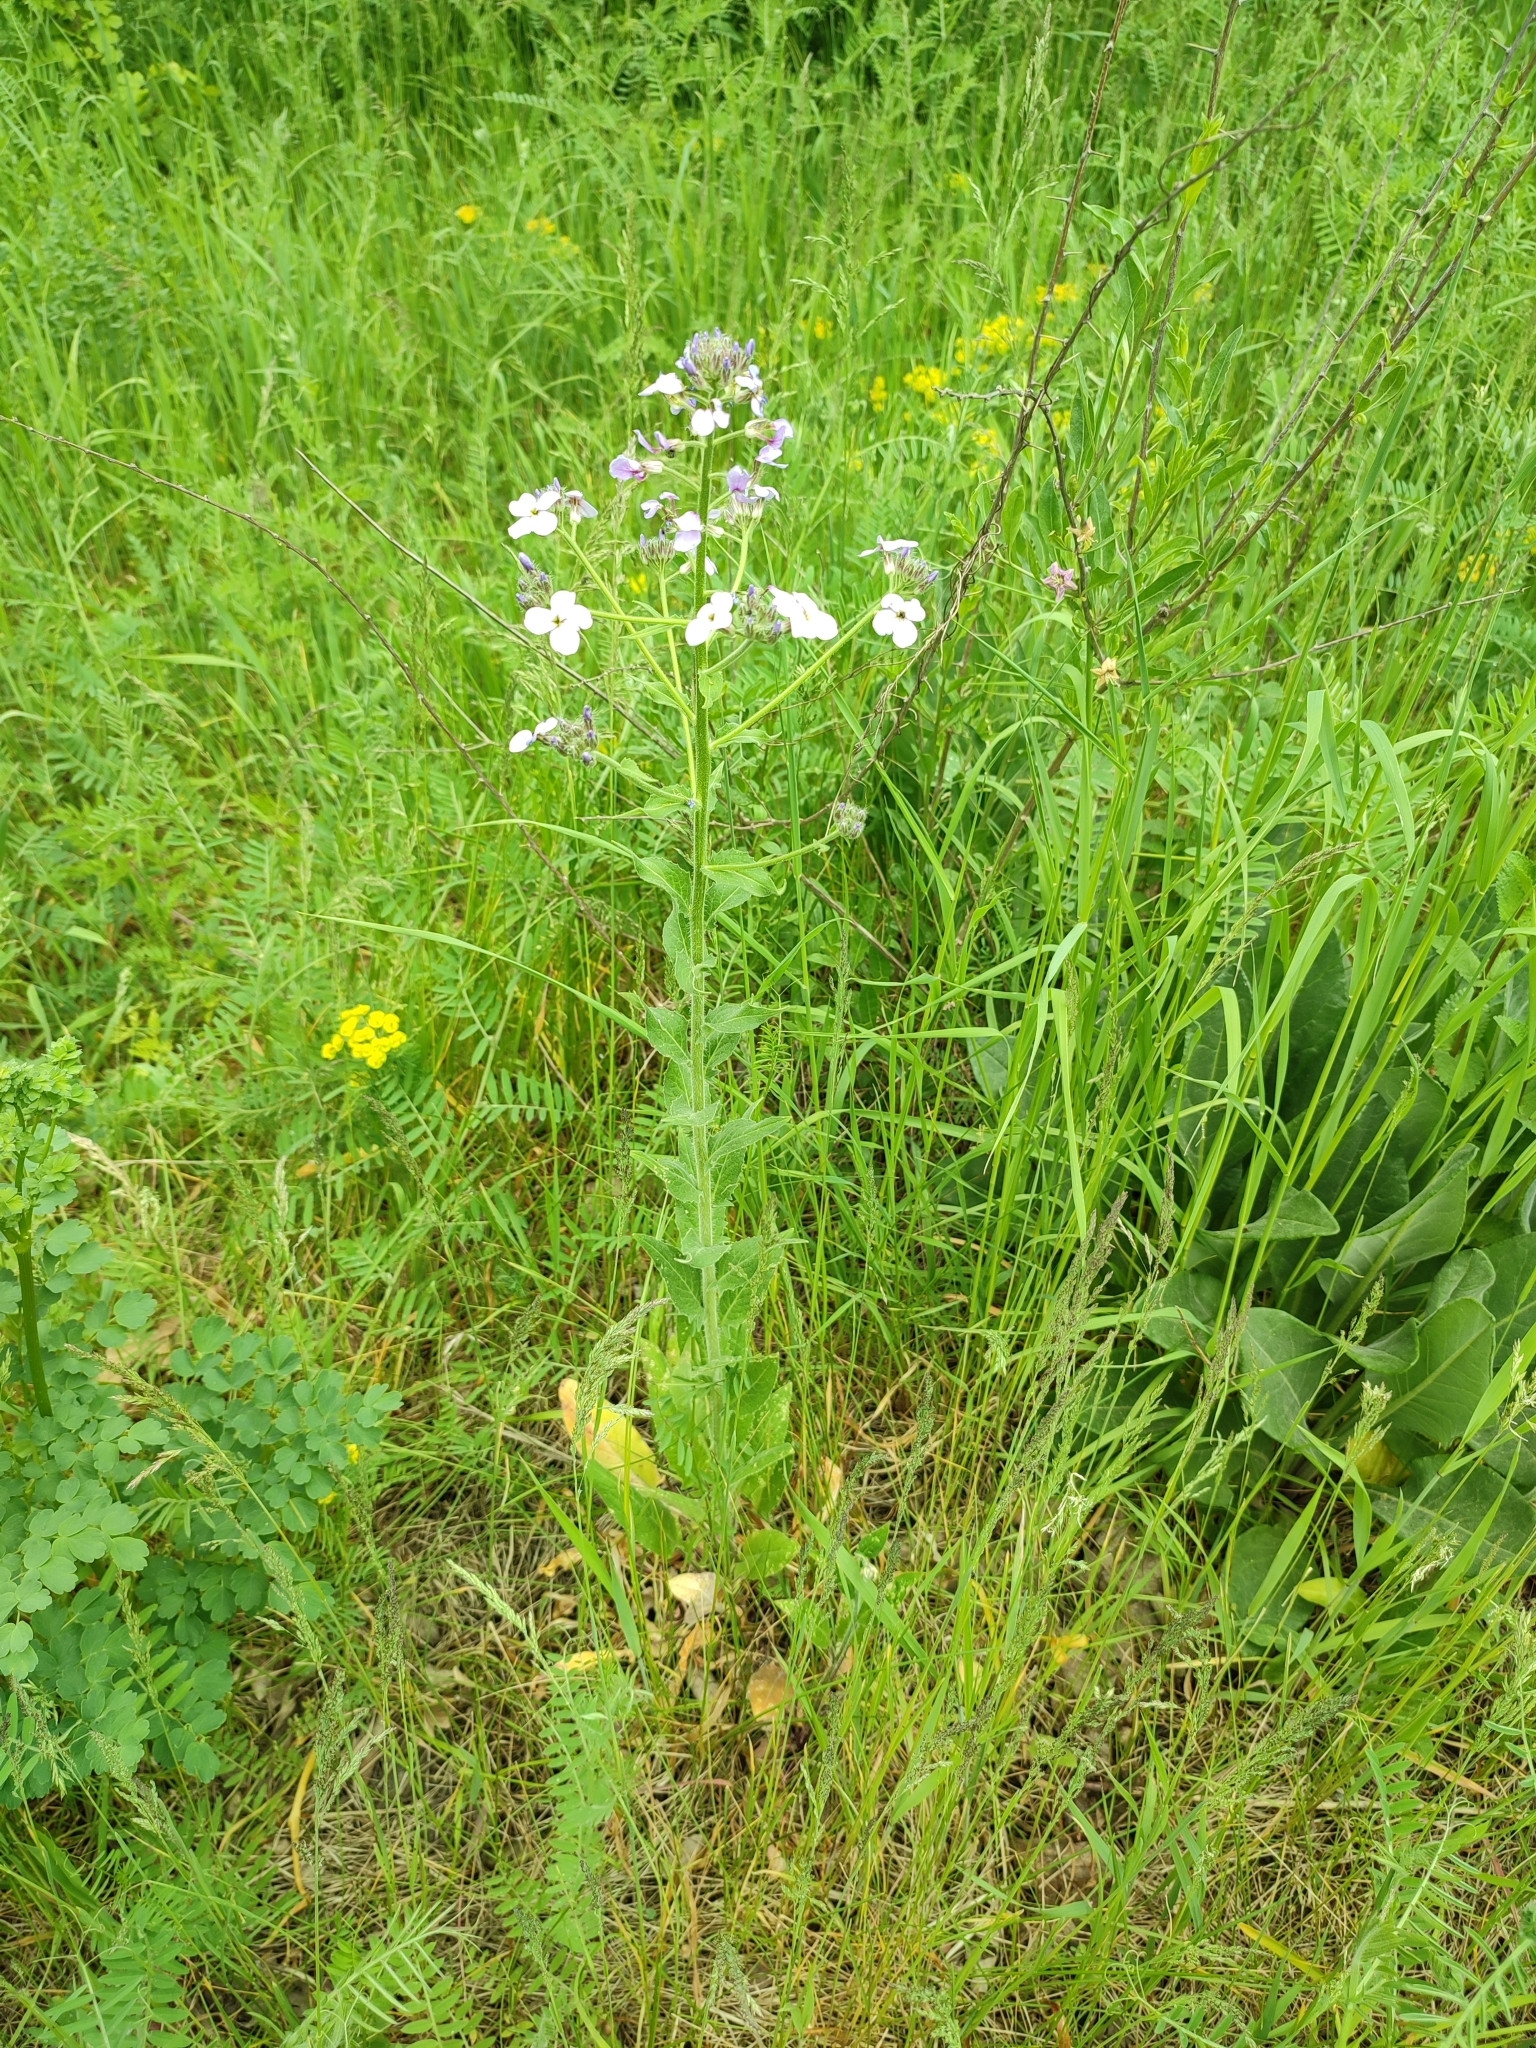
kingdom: Plantae
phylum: Tracheophyta
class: Magnoliopsida
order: Brassicales
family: Brassicaceae
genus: Hesperis
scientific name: Hesperis matronalis
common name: Dame's-violet
